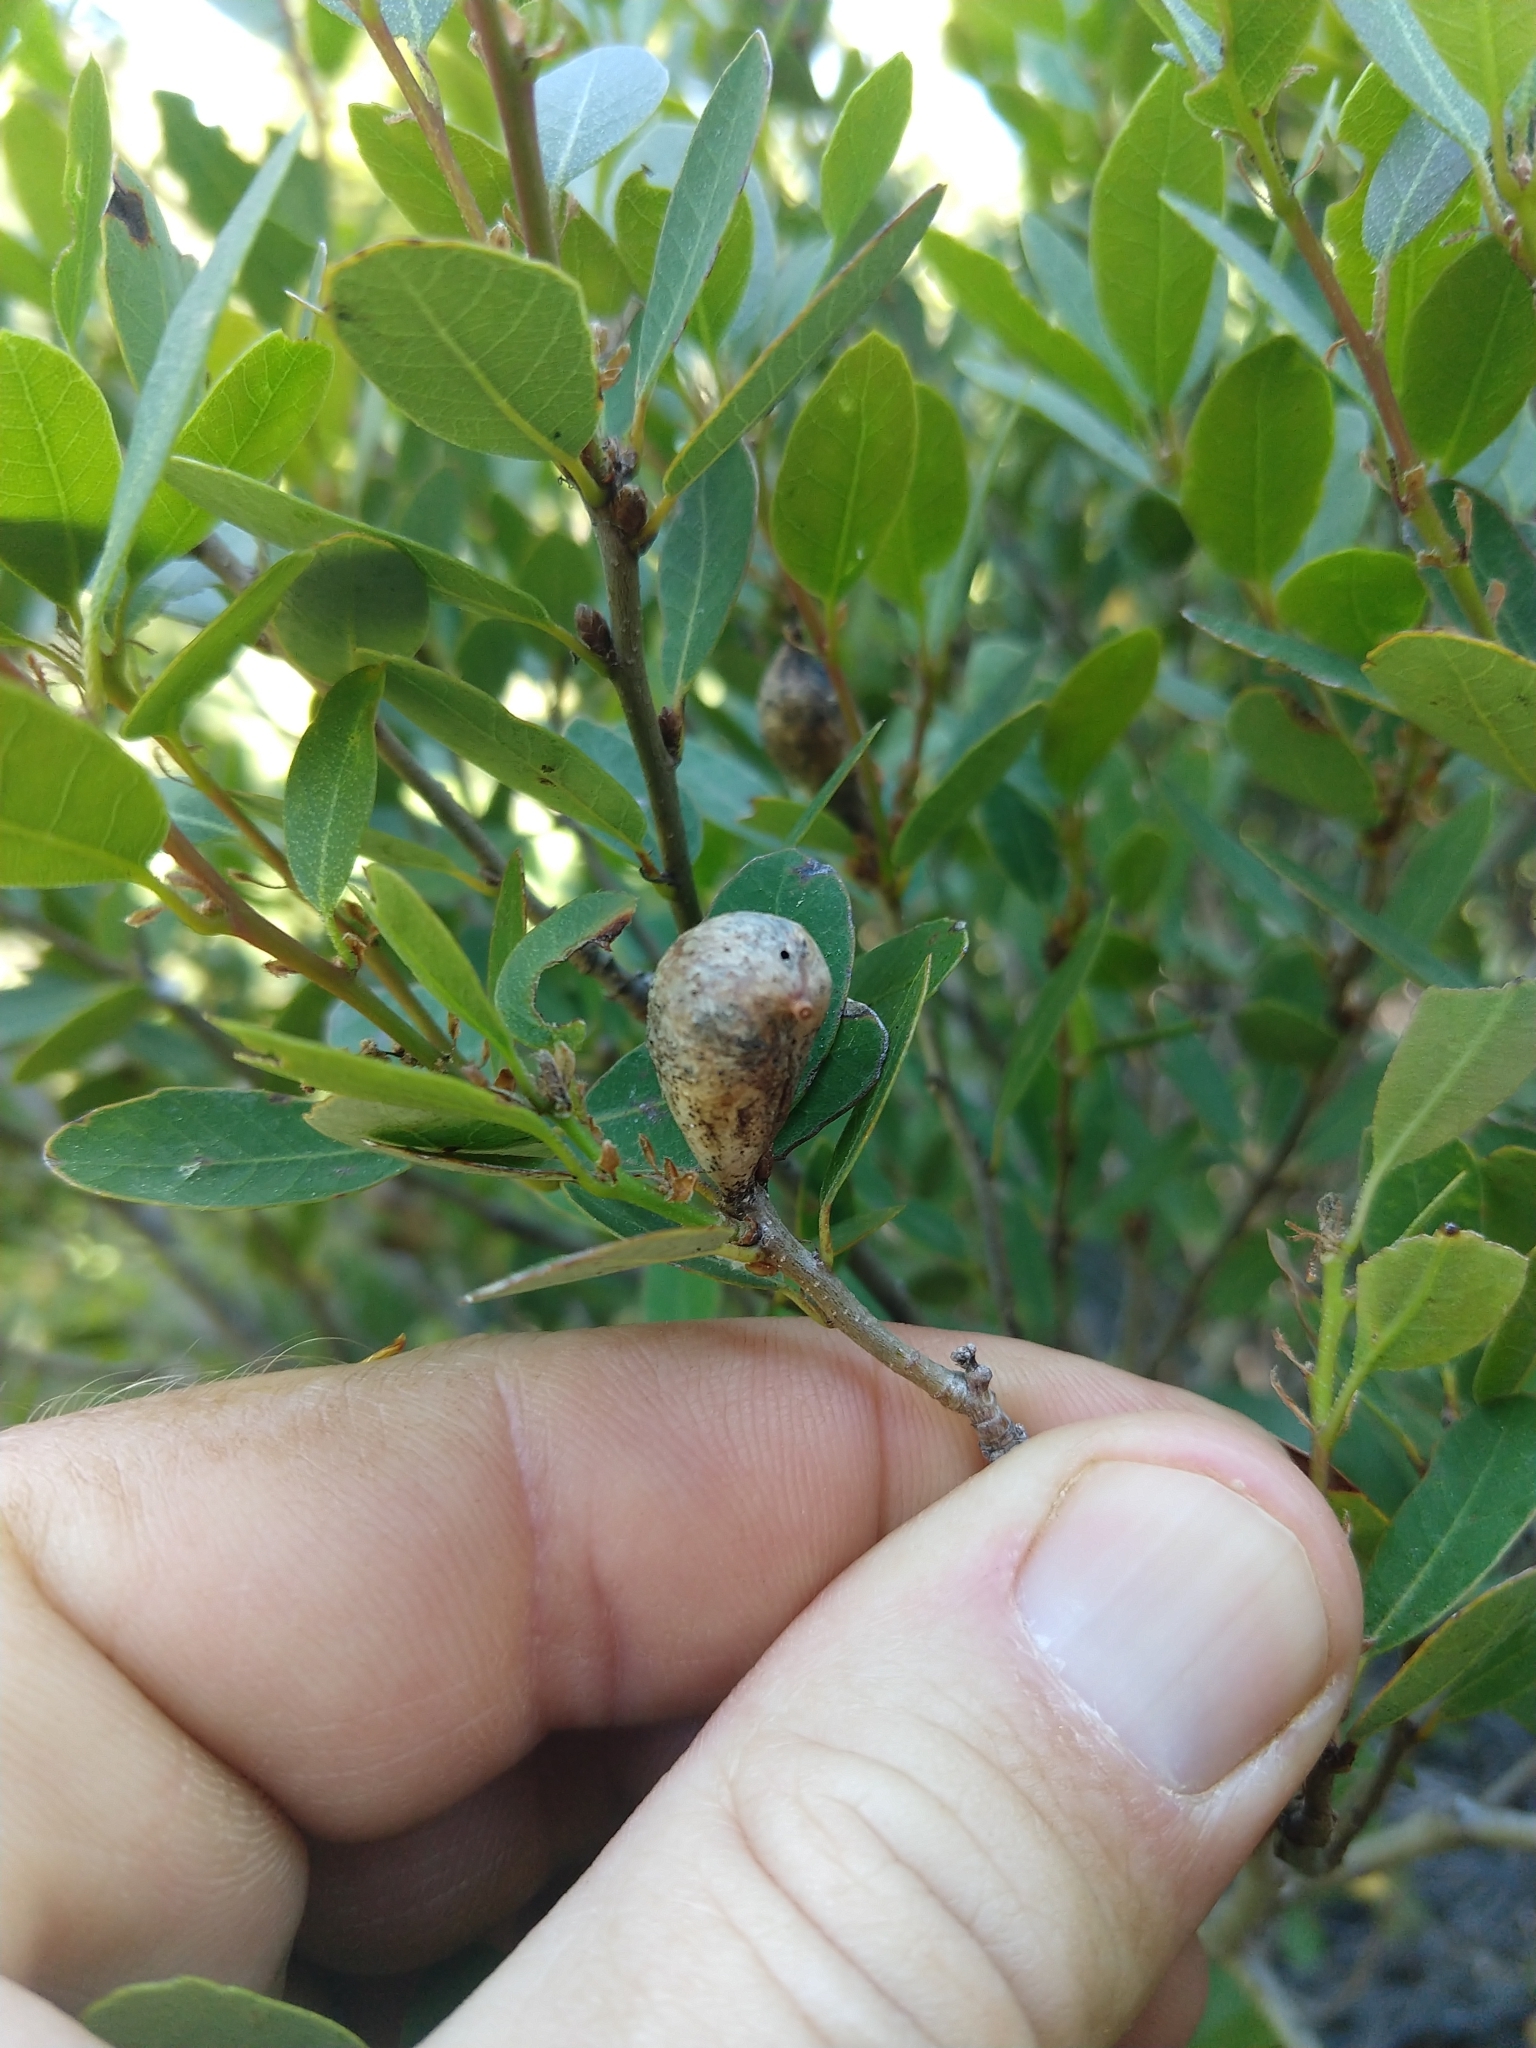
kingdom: Animalia
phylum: Arthropoda
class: Insecta
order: Hymenoptera
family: Cynipidae
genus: Heteroecus
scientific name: Heteroecus pacificus
